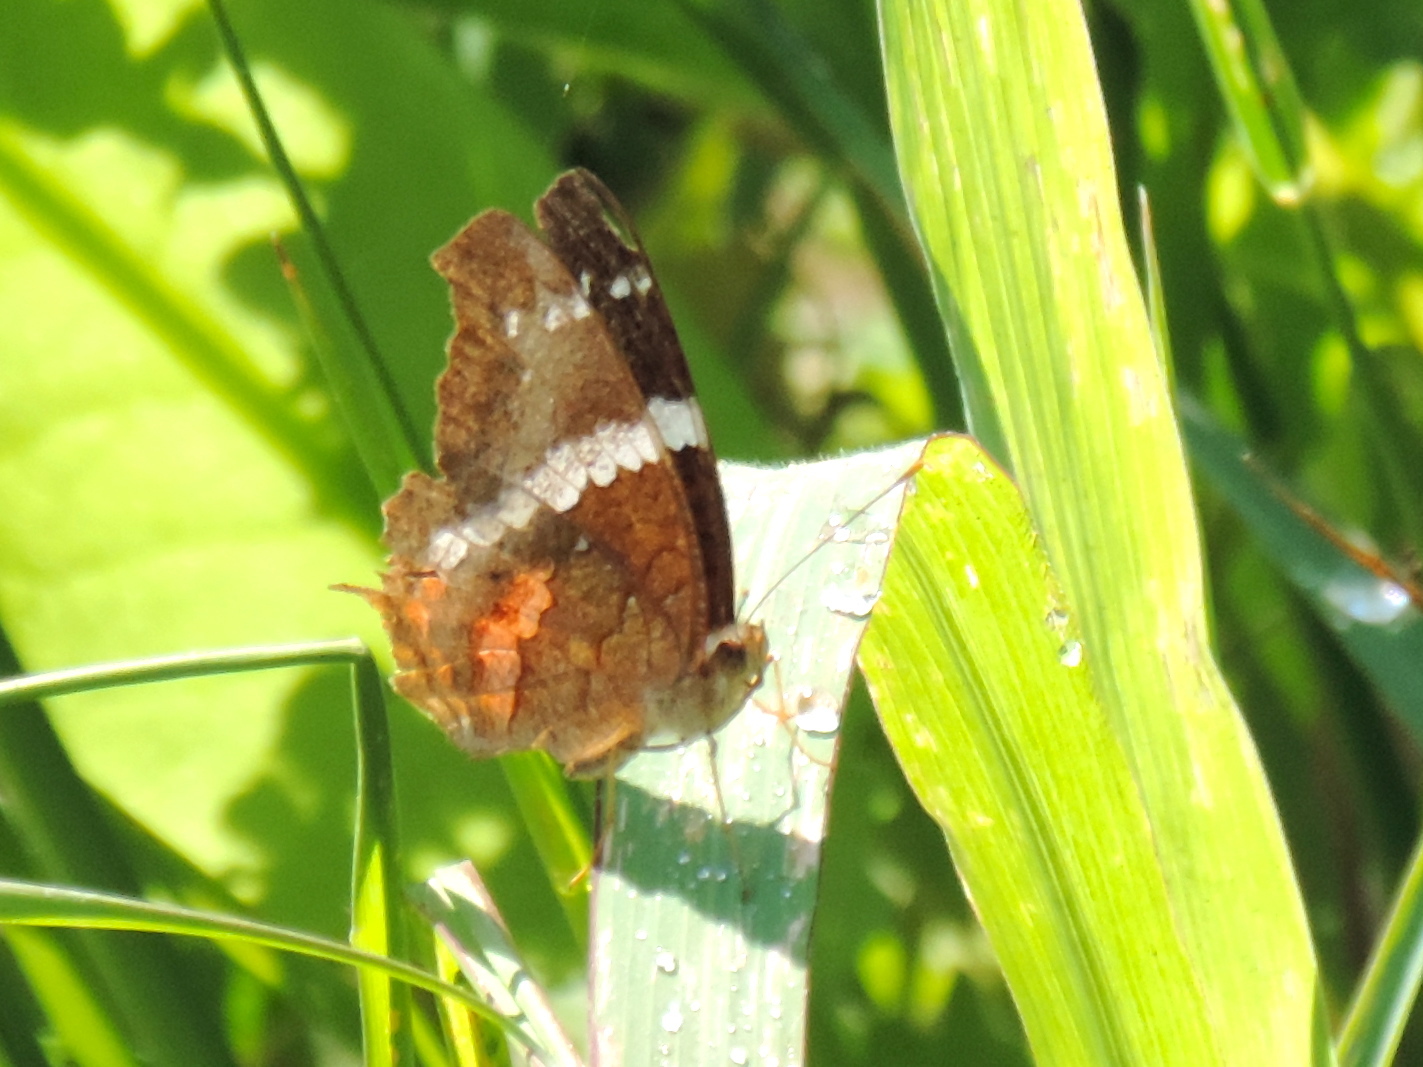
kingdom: Animalia
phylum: Arthropoda
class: Insecta
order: Lepidoptera
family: Nymphalidae
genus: Anartia
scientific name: Anartia fatima
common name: Banded peacock
